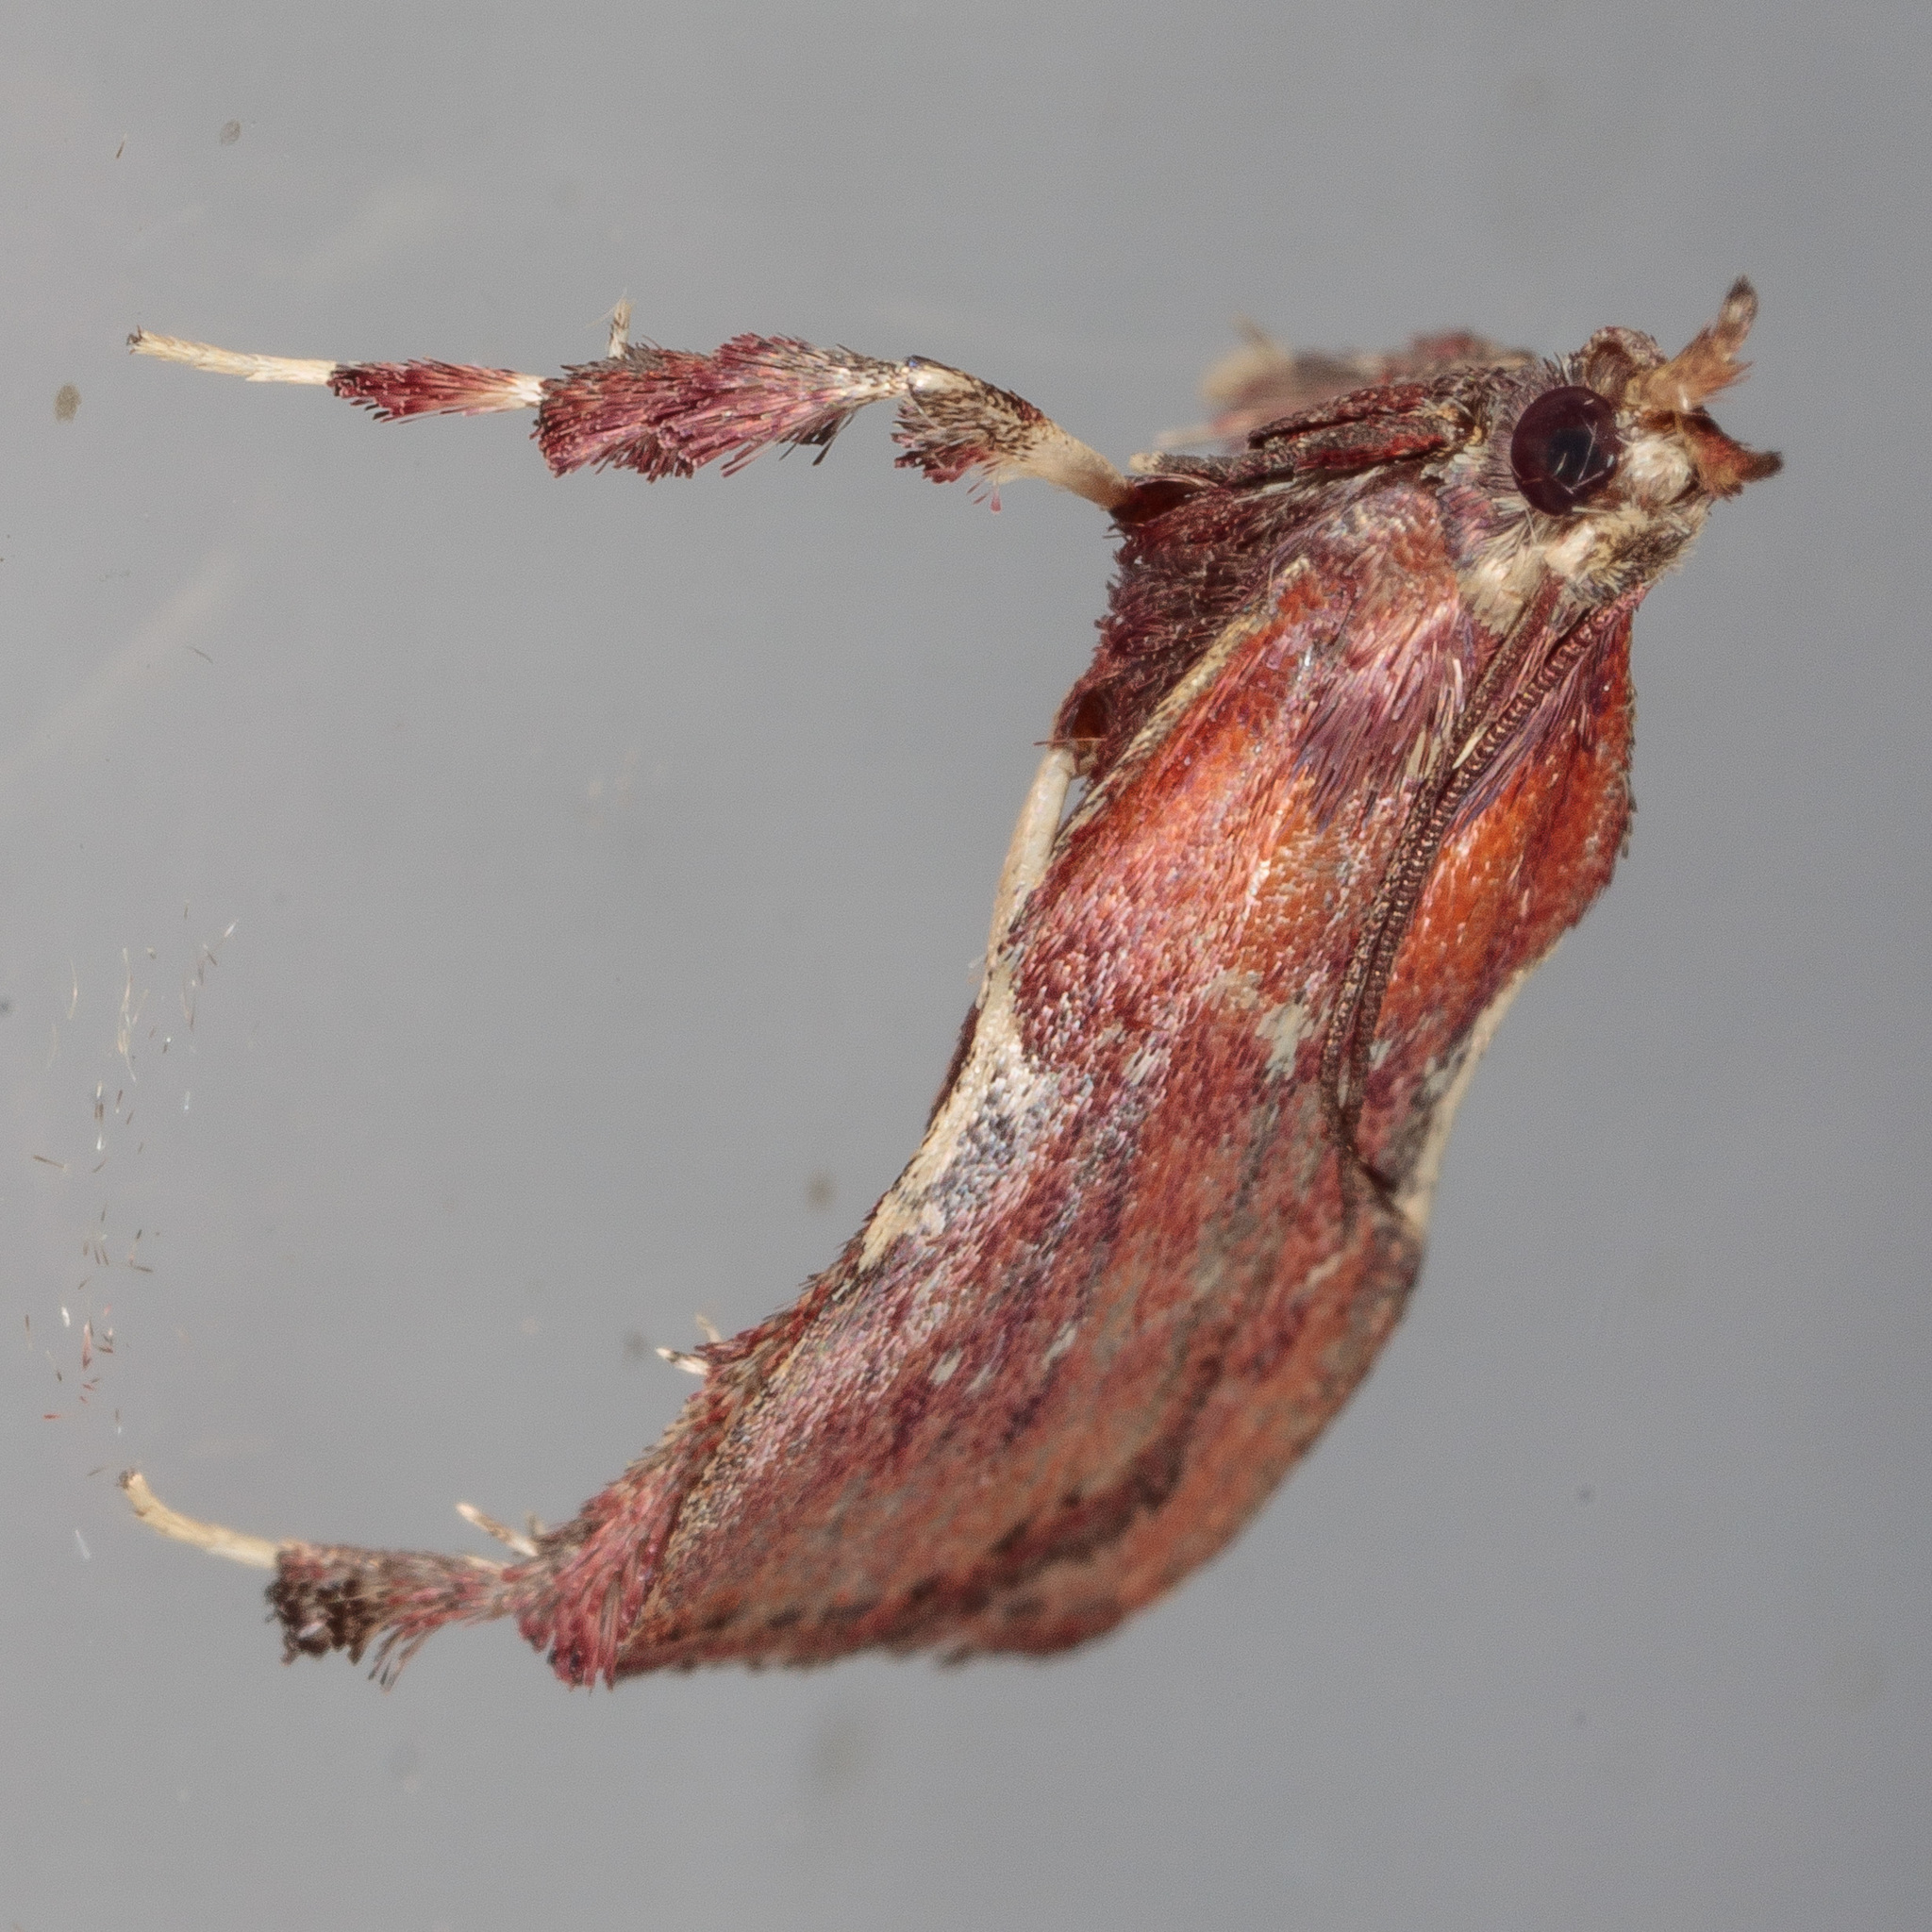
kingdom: Animalia
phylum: Arthropoda
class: Insecta
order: Lepidoptera
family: Pyralidae
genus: Galasa
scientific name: Galasa nigrinodis
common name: Boxwood leaftier moth
